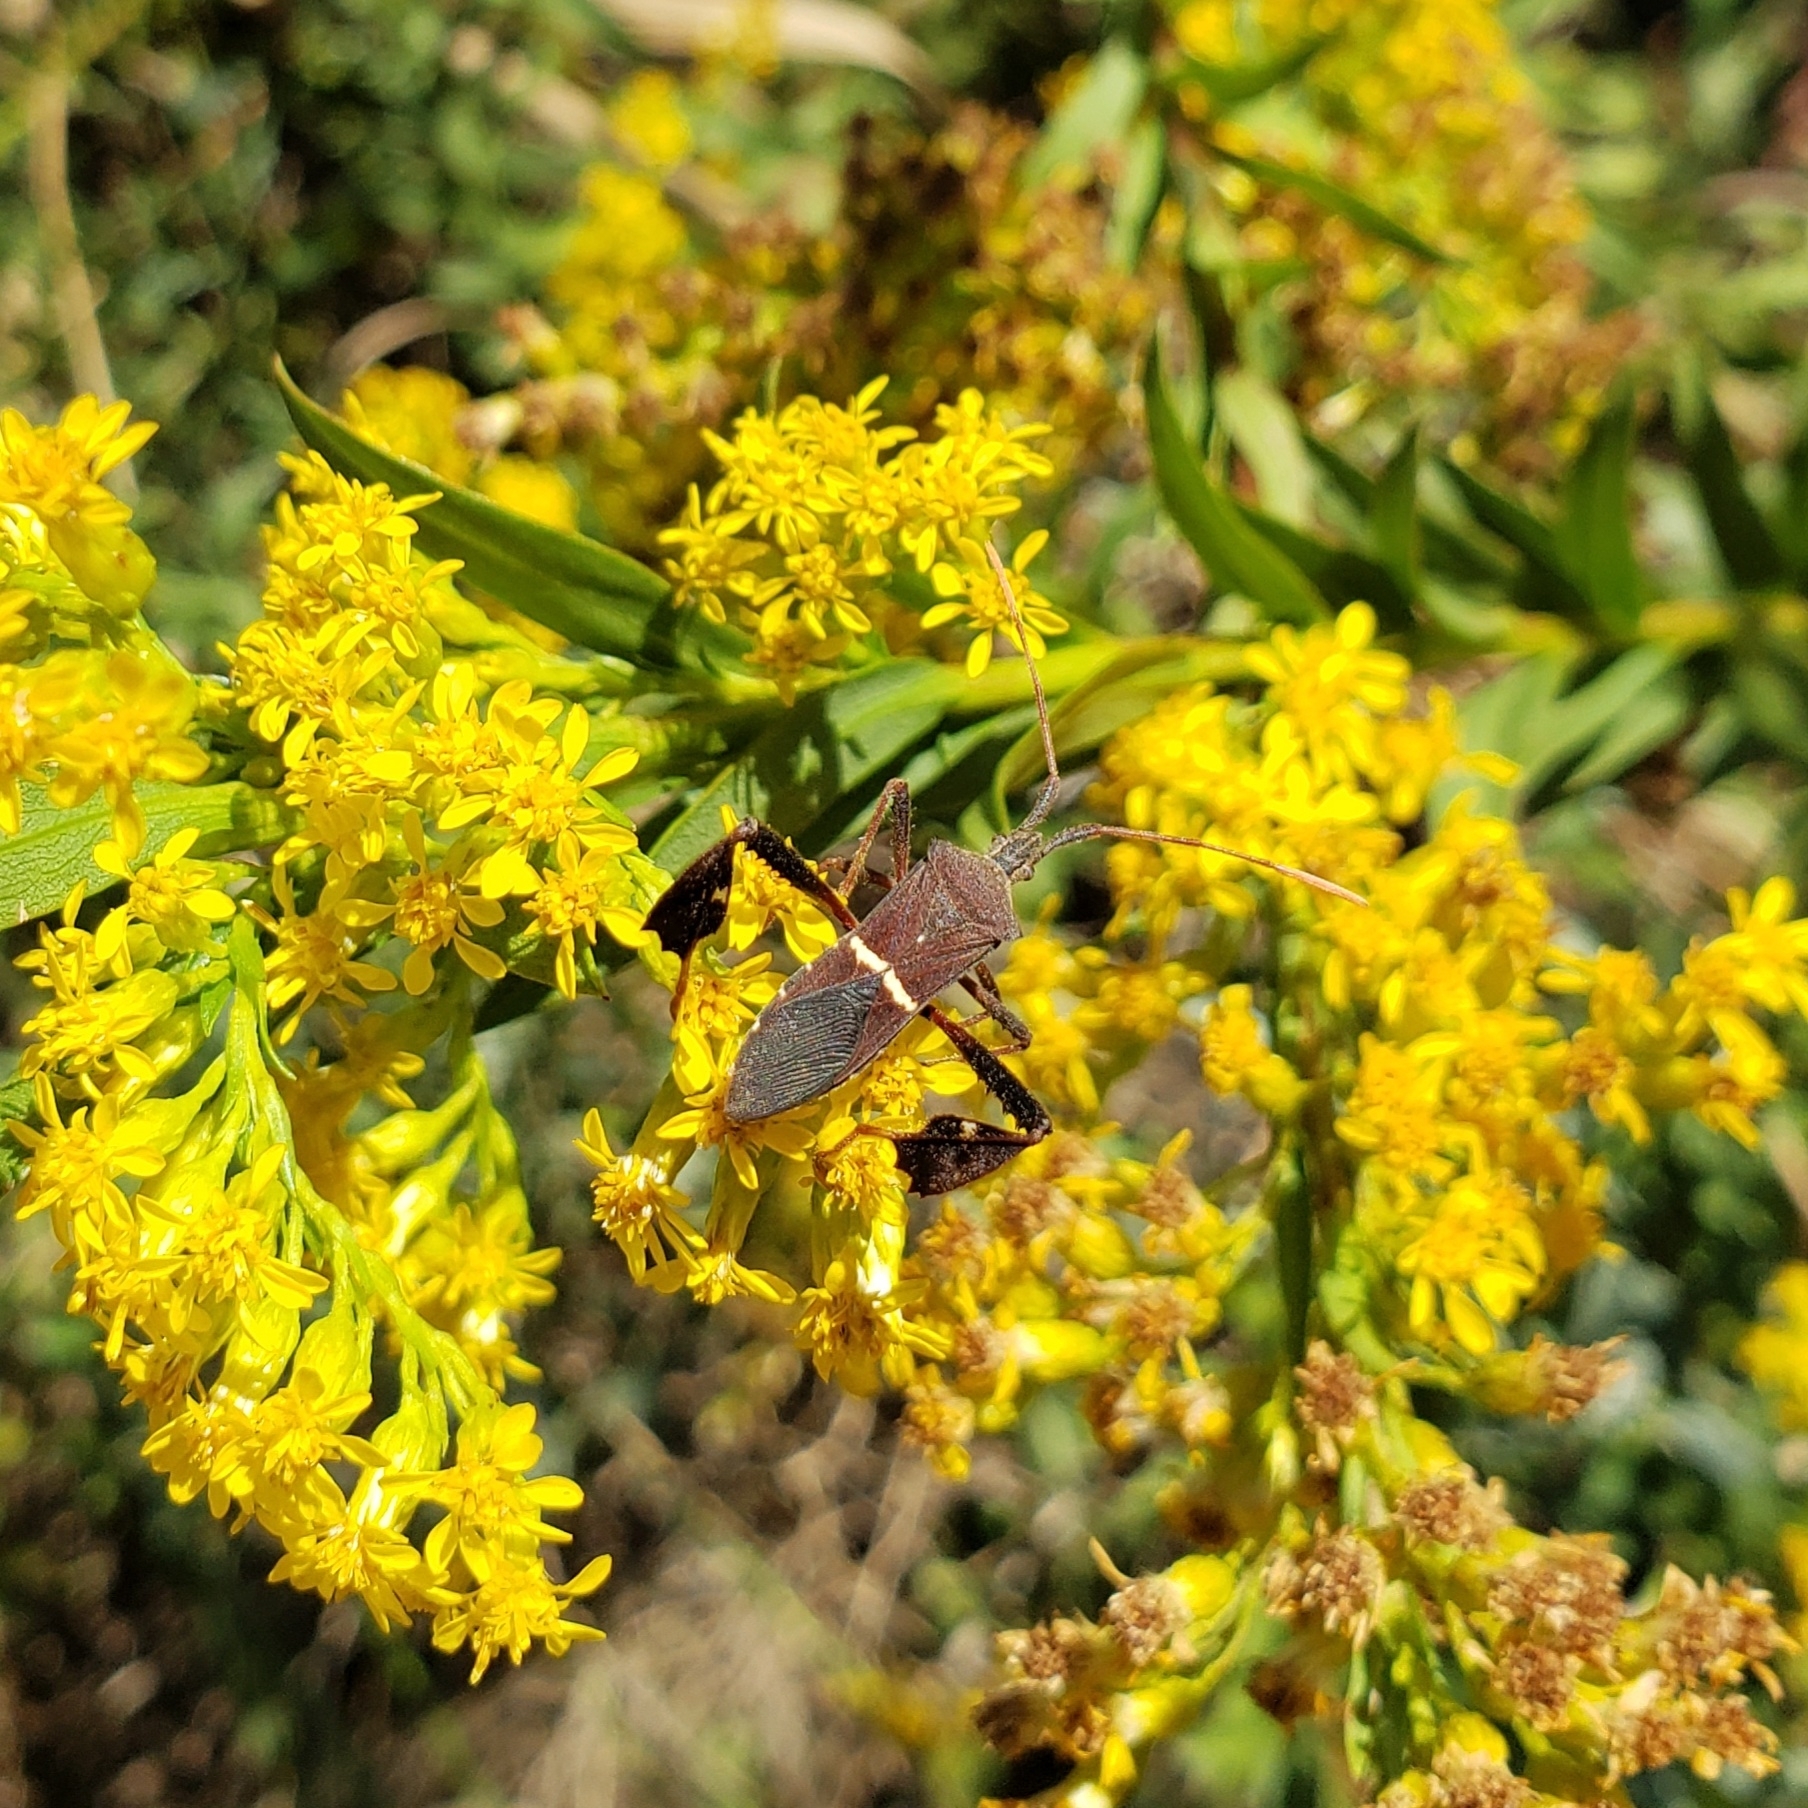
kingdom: Animalia
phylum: Arthropoda
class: Insecta
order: Hemiptera
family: Coreidae
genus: Leptoglossus
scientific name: Leptoglossus phyllopus
